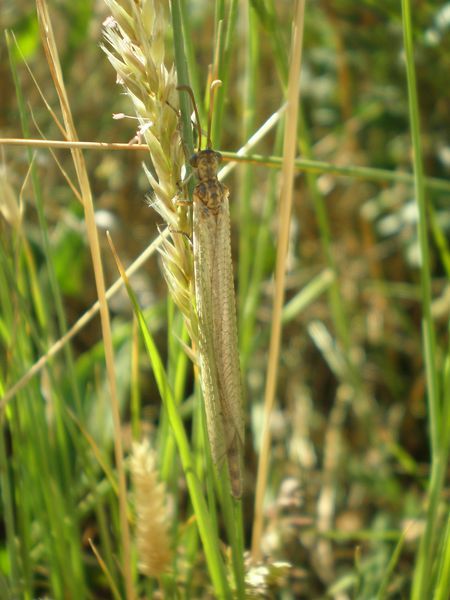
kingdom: Animalia
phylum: Arthropoda
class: Insecta
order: Neuroptera
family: Myrmeleontidae
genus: Creoleon
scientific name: Creoleon lugdunensis
